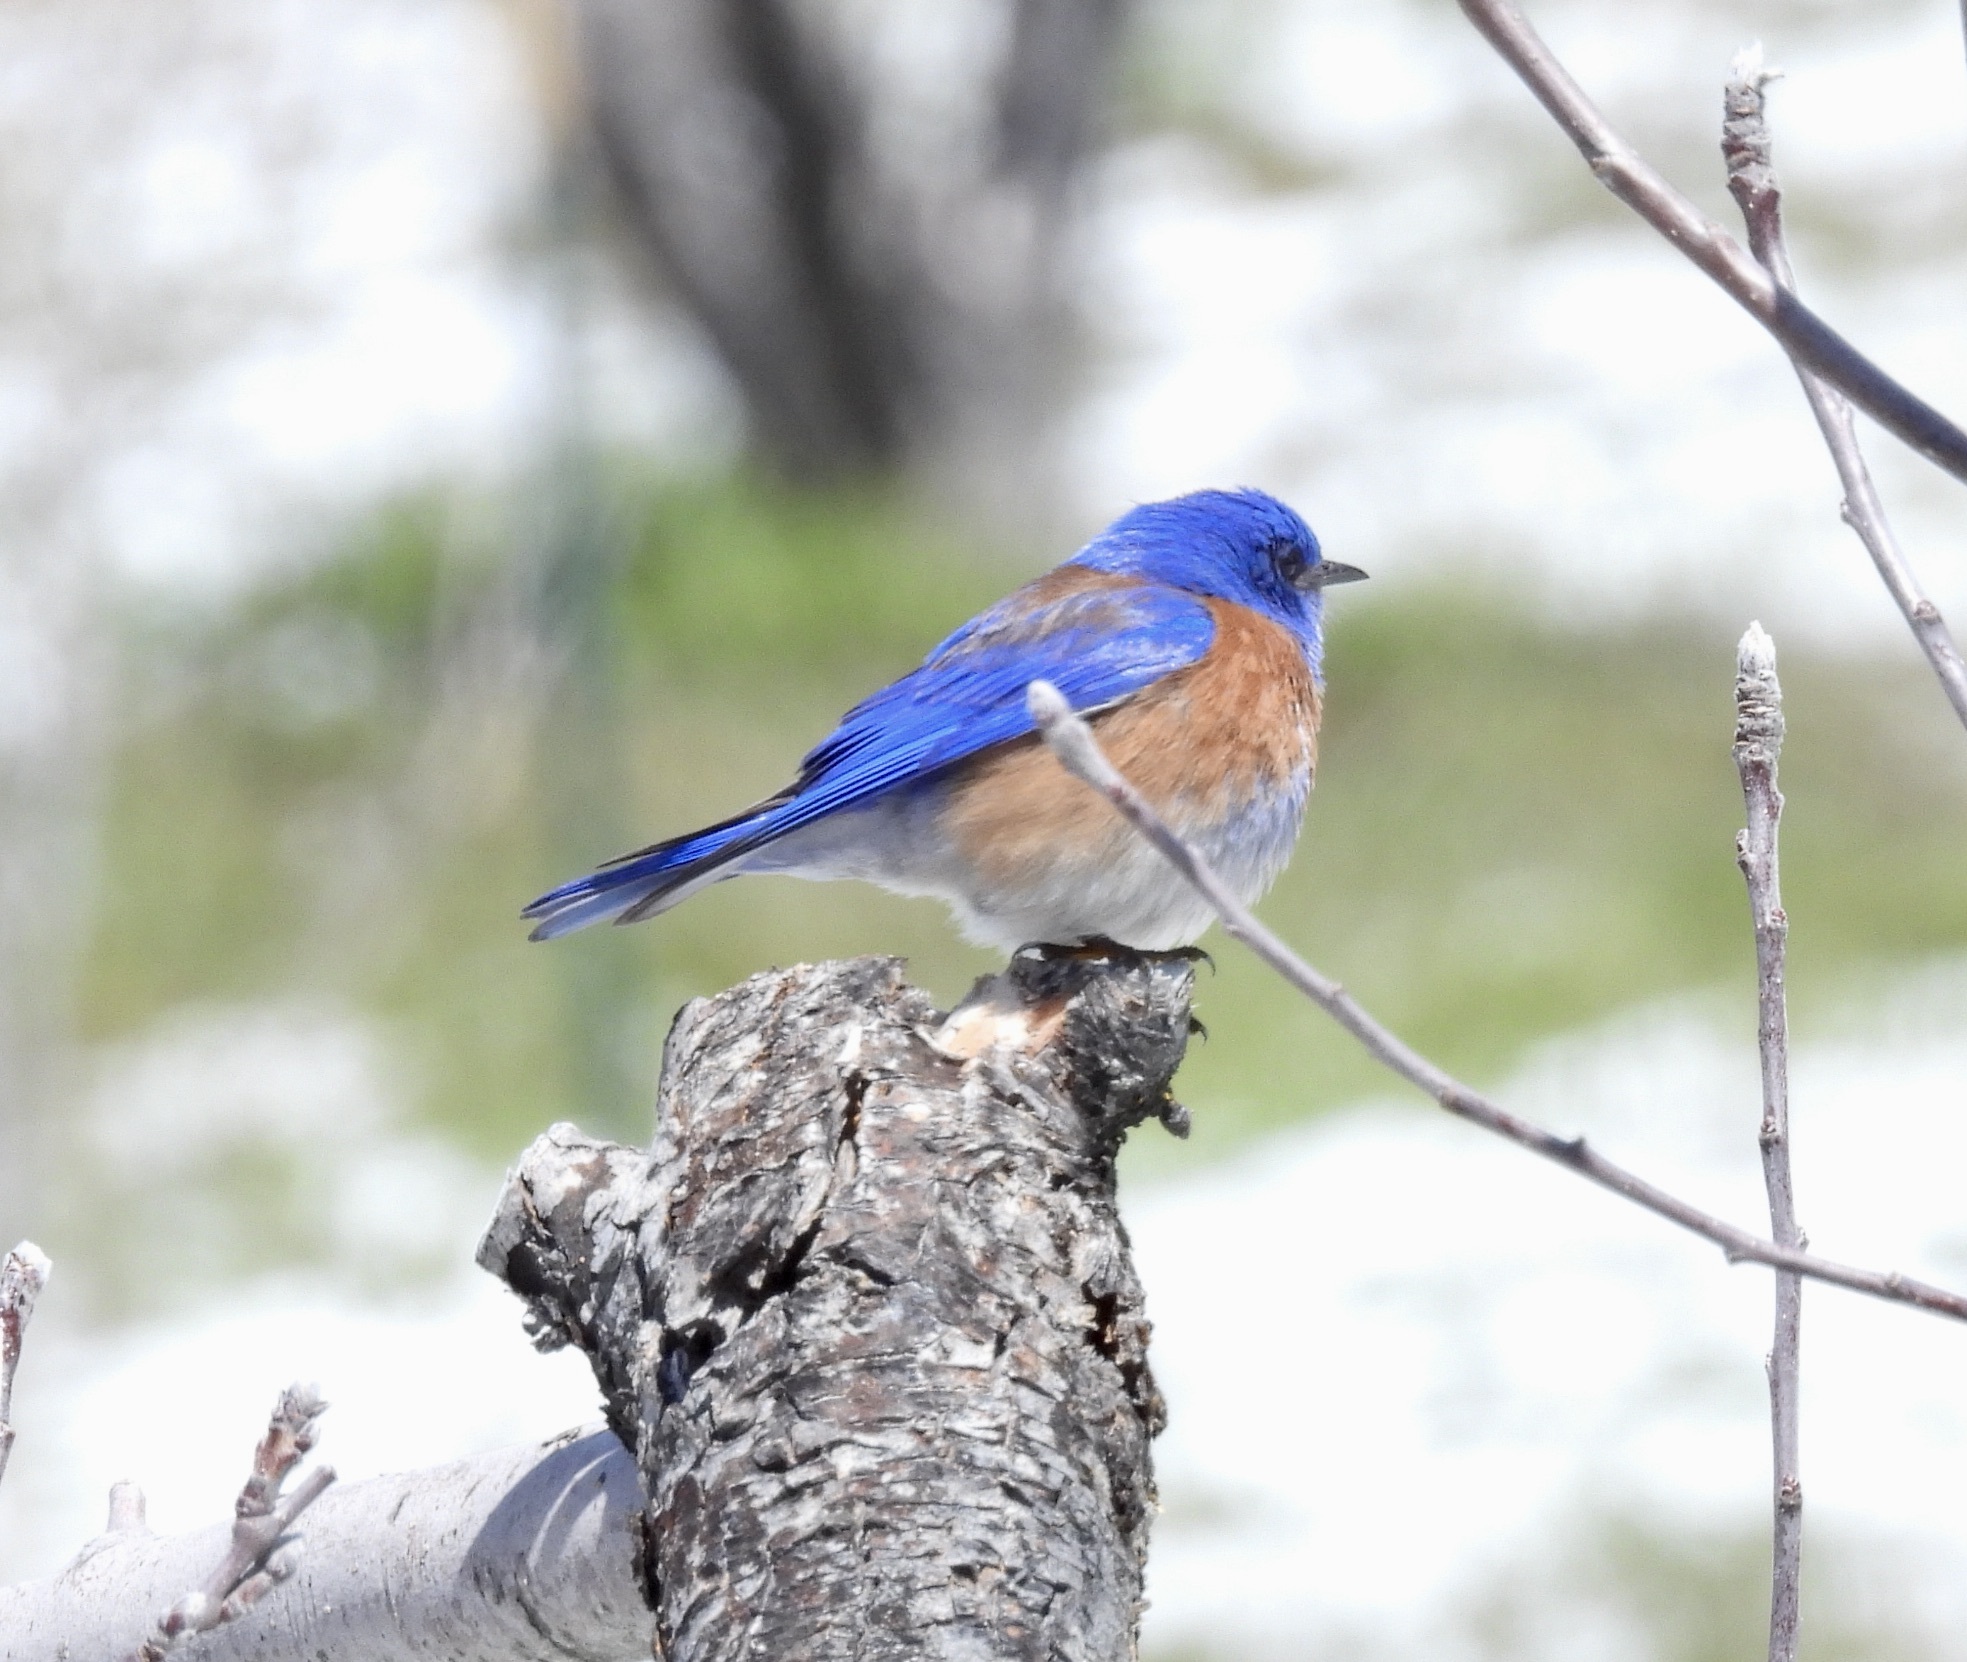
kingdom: Animalia
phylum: Chordata
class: Aves
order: Passeriformes
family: Turdidae
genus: Sialia
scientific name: Sialia mexicana
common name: Western bluebird
